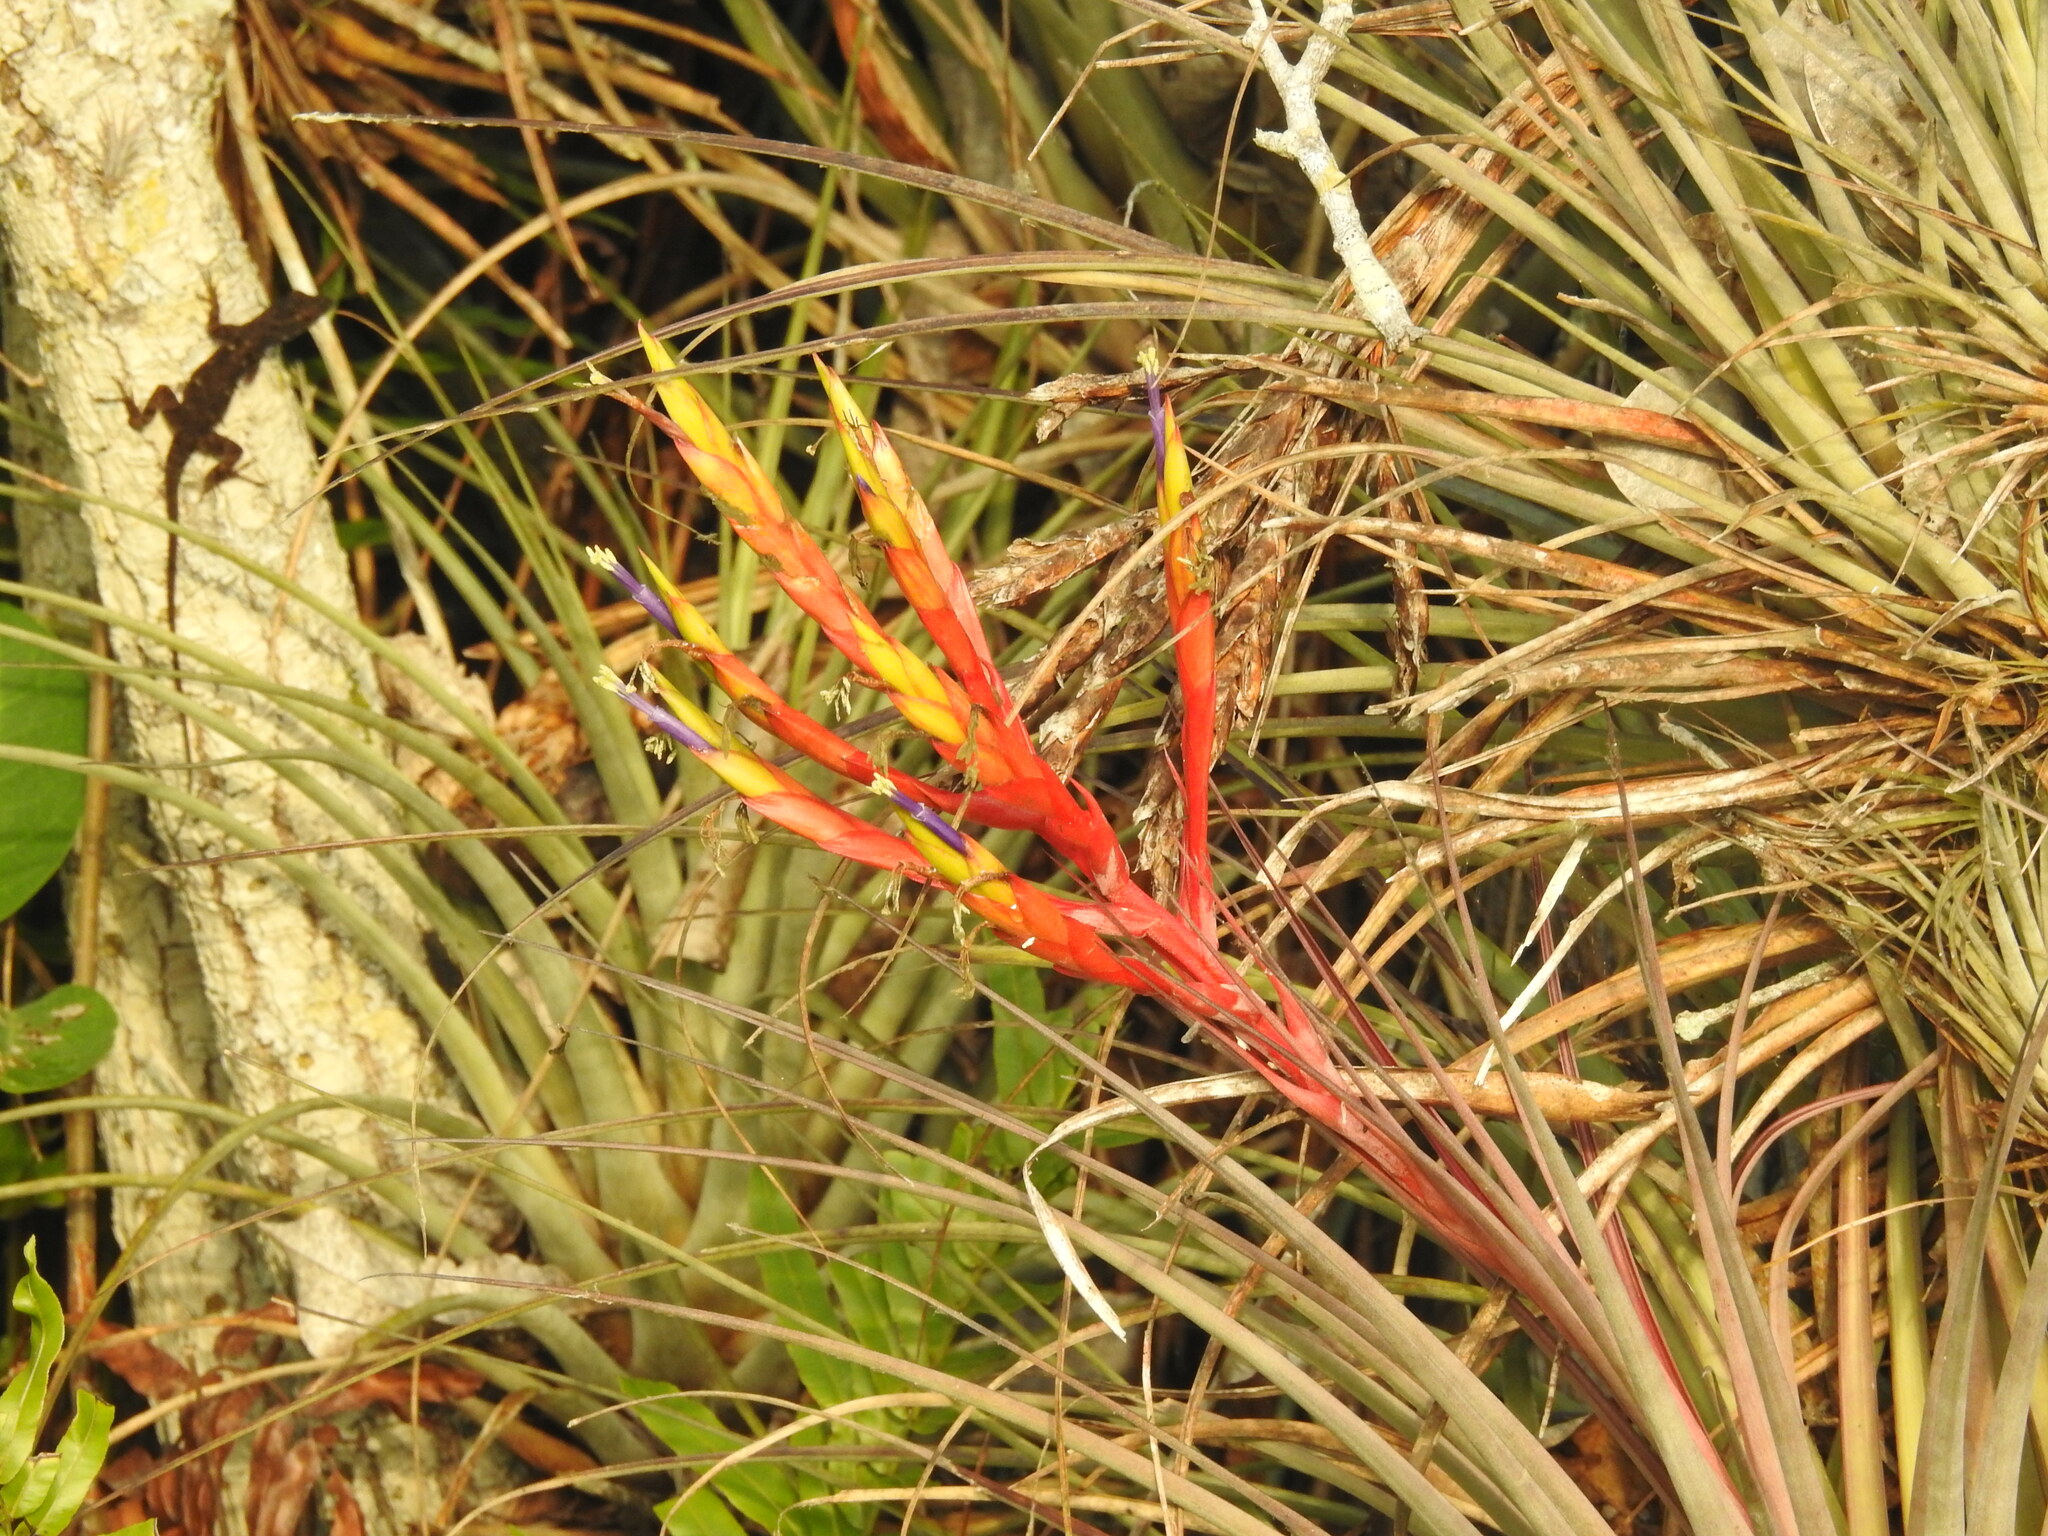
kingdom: Plantae
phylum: Tracheophyta
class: Liliopsida
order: Poales
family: Bromeliaceae
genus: Tillandsia
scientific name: Tillandsia fasciculata
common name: Giant airplant
